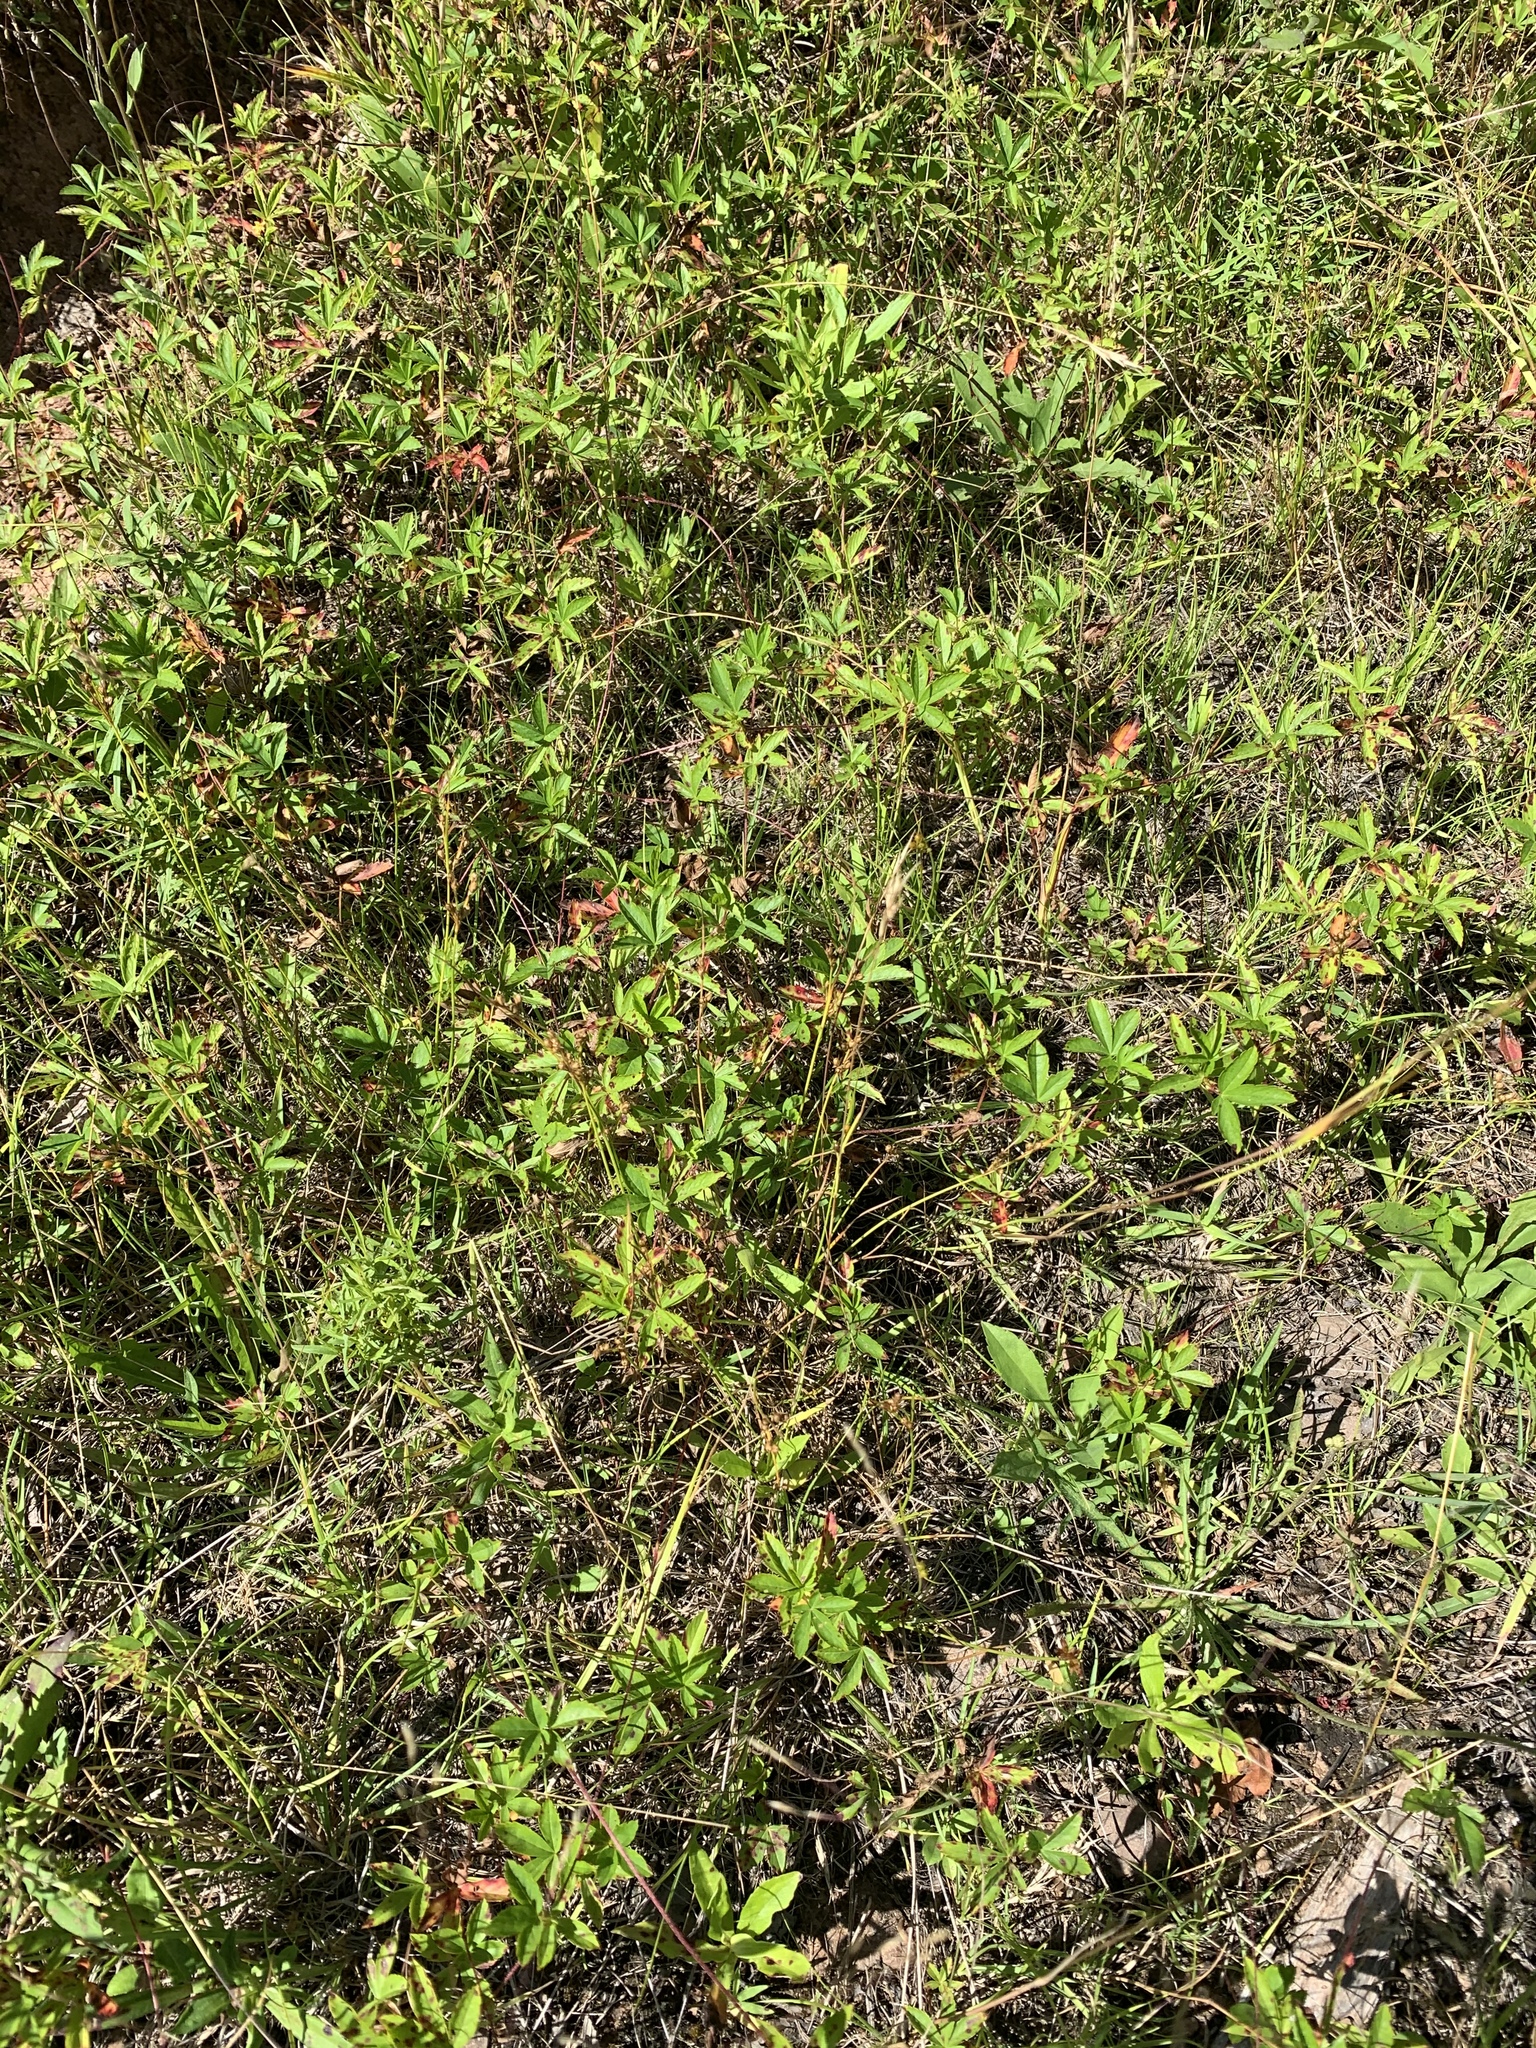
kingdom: Plantae
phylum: Tracheophyta
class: Magnoliopsida
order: Rosales
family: Rosaceae
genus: Potentilla
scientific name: Potentilla simplex
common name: Old field cinquefoil
